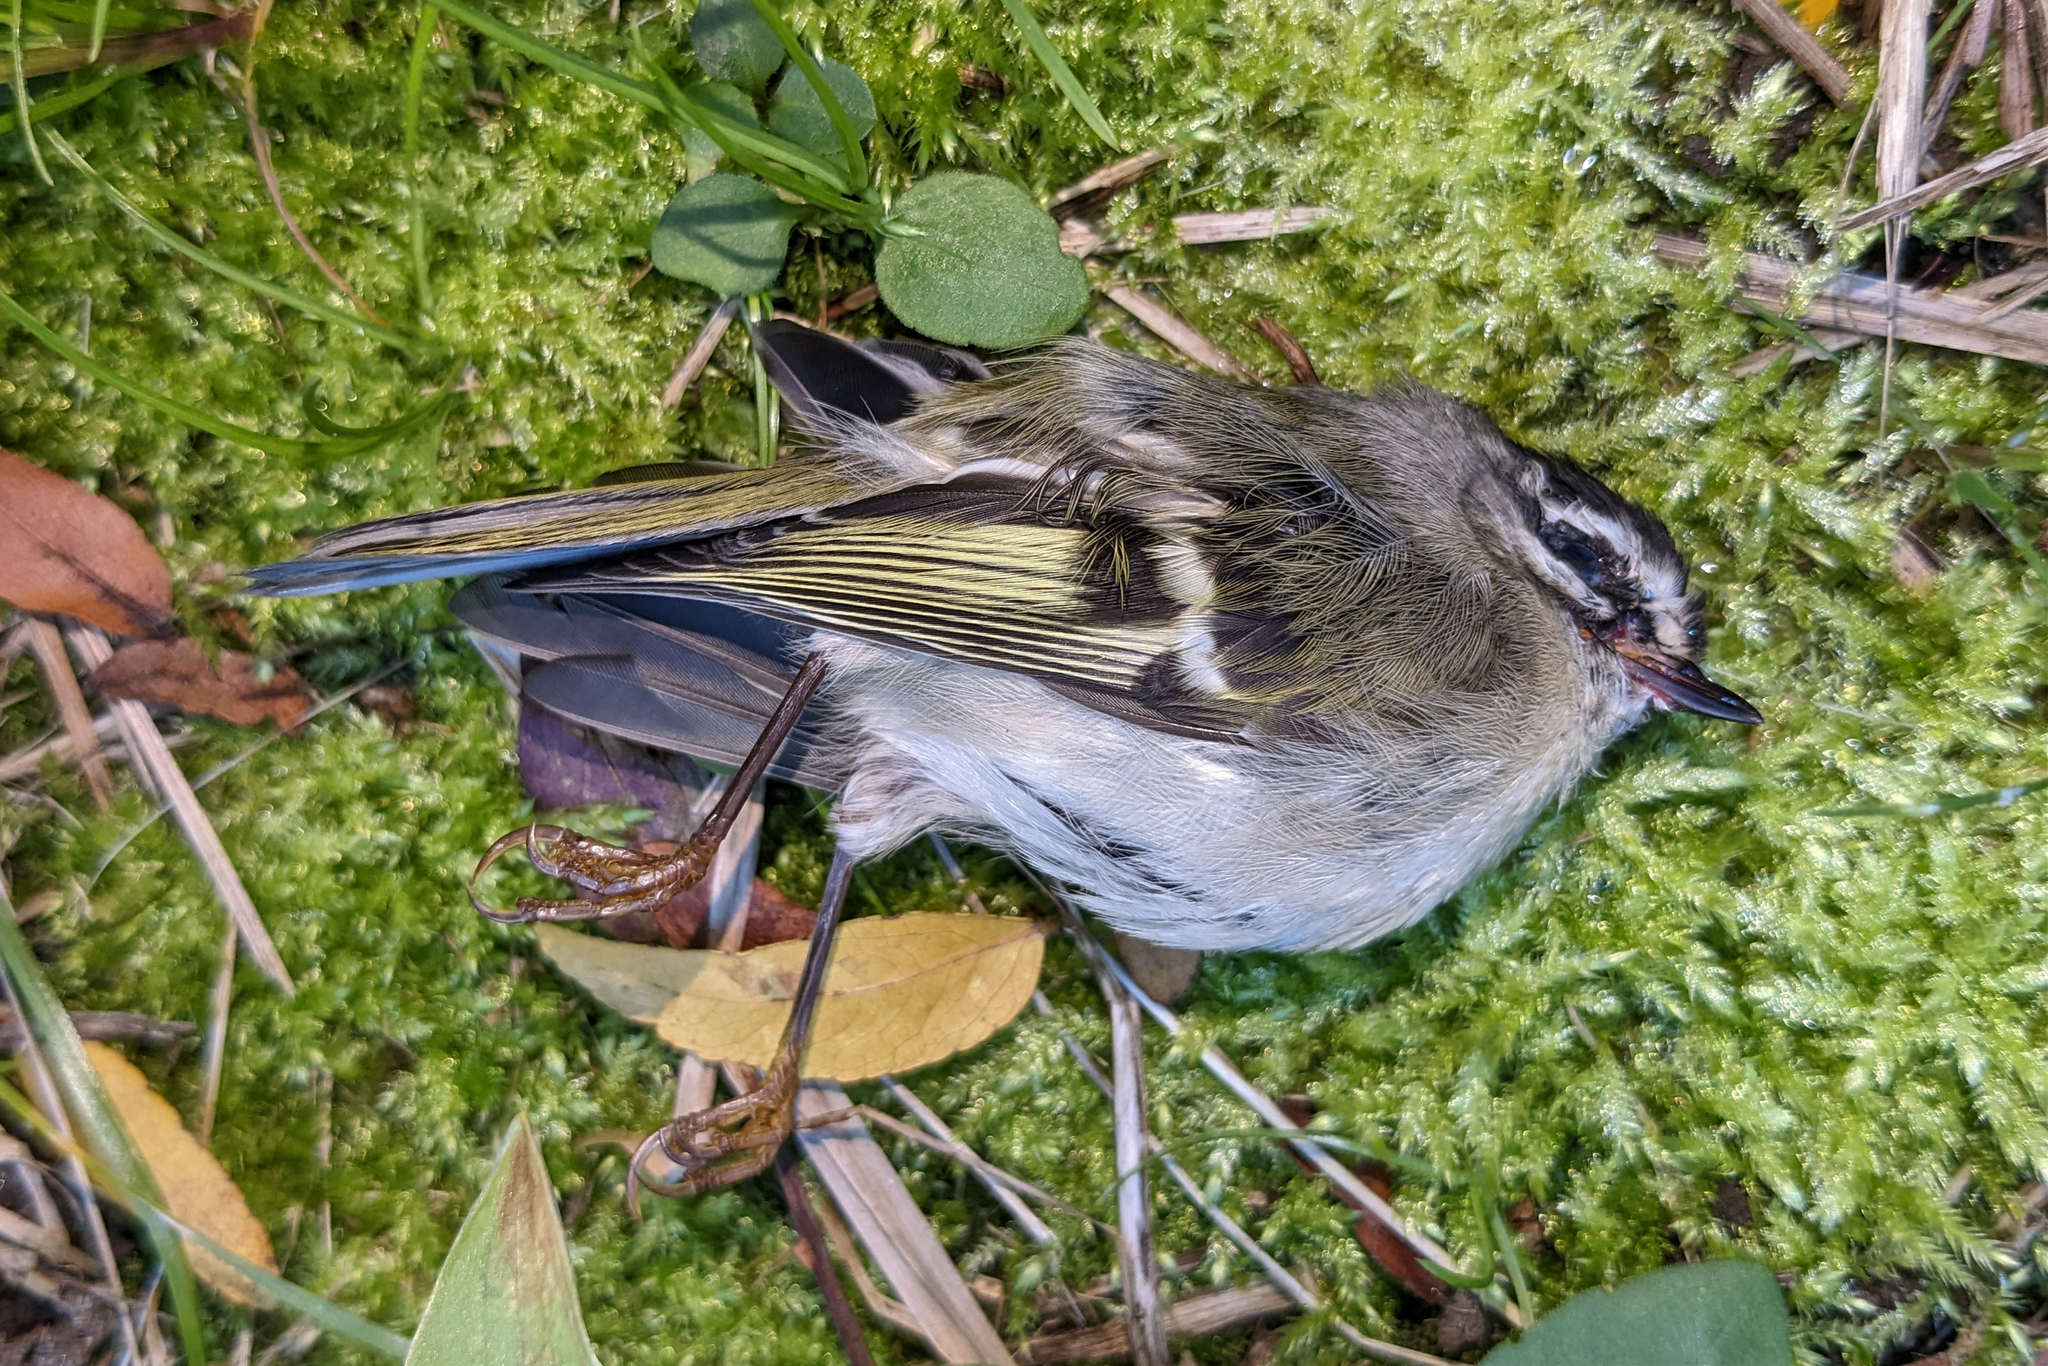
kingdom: Animalia
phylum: Chordata
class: Aves
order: Passeriformes
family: Regulidae
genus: Regulus
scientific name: Regulus satrapa
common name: Golden-crowned kinglet
